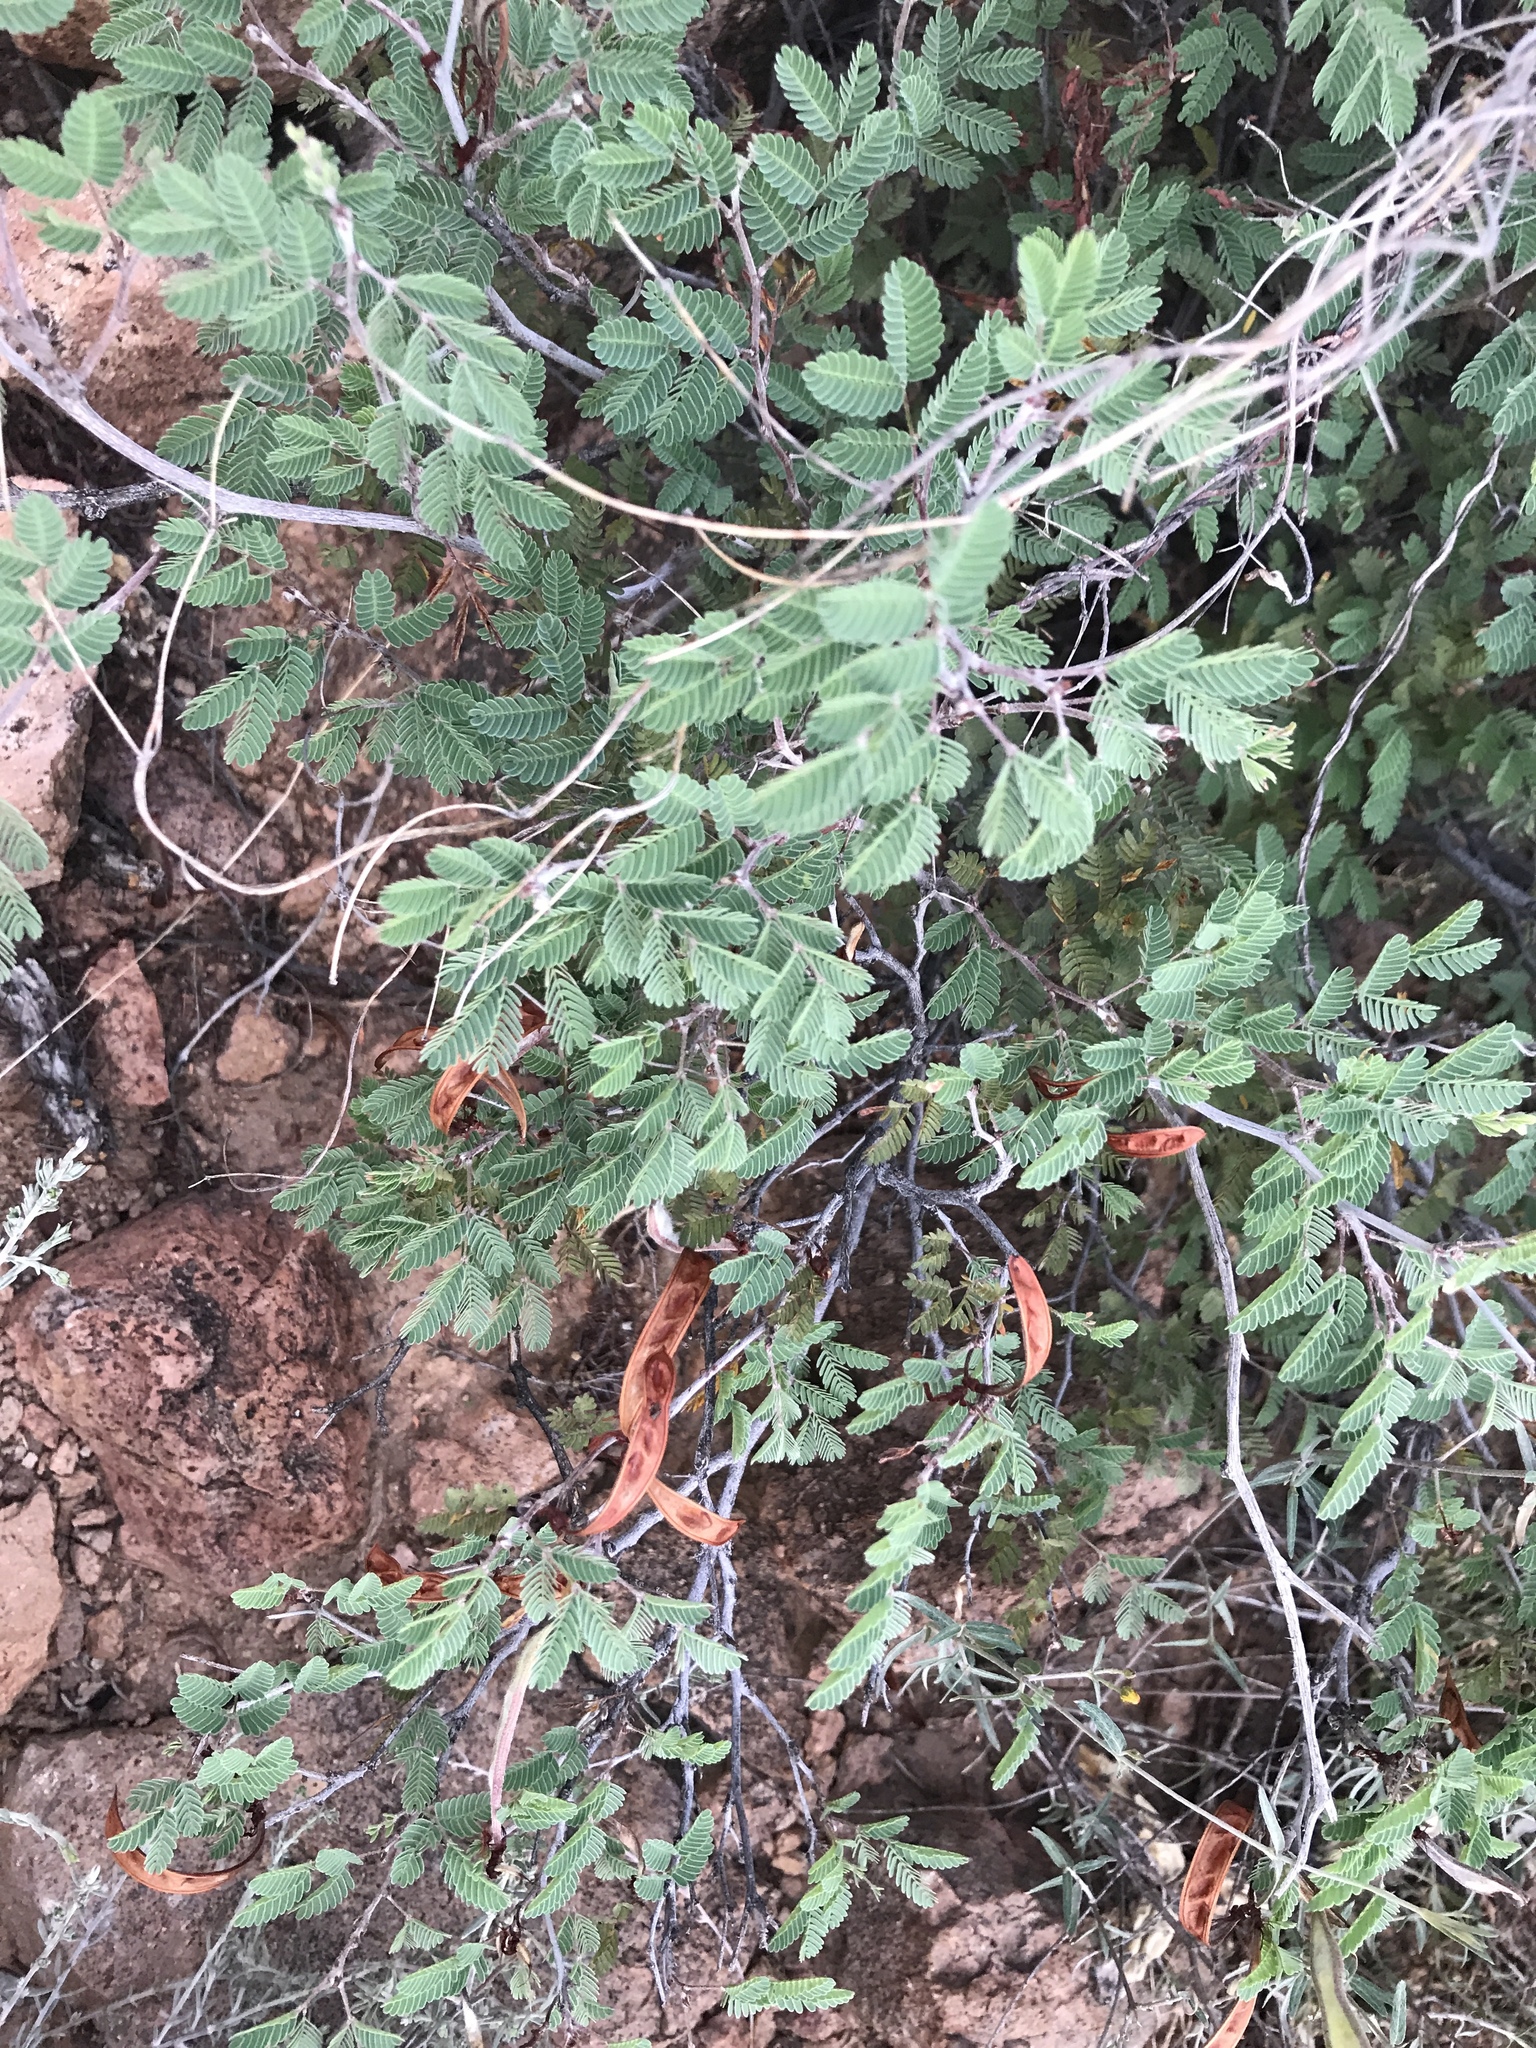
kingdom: Plantae
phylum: Tracheophyta
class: Magnoliopsida
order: Fabales
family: Fabaceae
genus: Calliandra
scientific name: Calliandra eriophylla
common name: Fairy-duster
